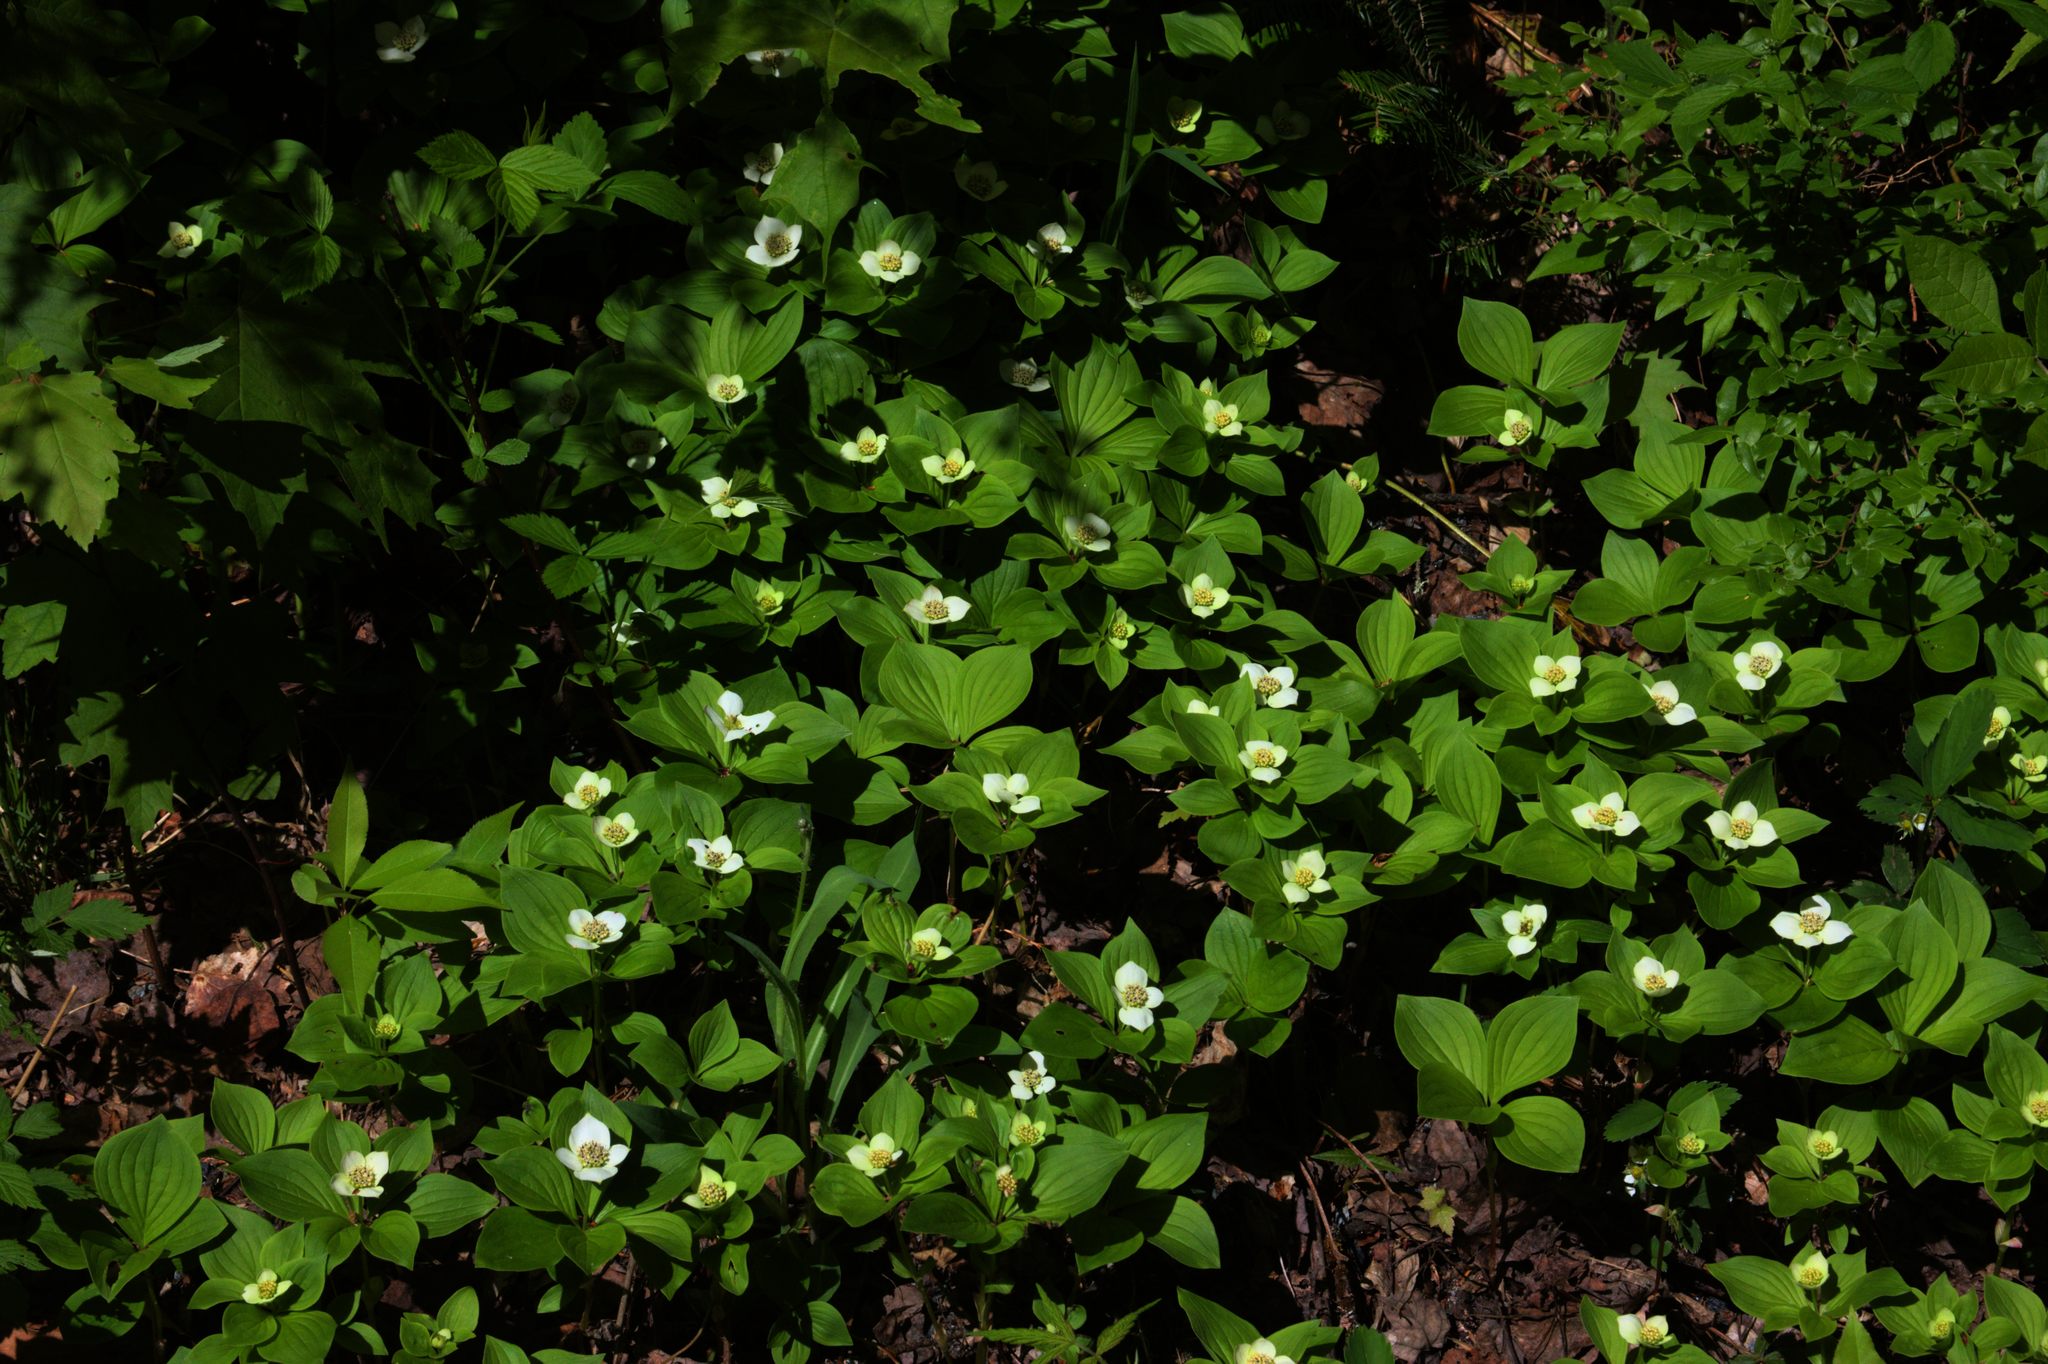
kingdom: Plantae
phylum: Tracheophyta
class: Magnoliopsida
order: Cornales
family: Cornaceae
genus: Cornus
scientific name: Cornus canadensis
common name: Creeping dogwood
